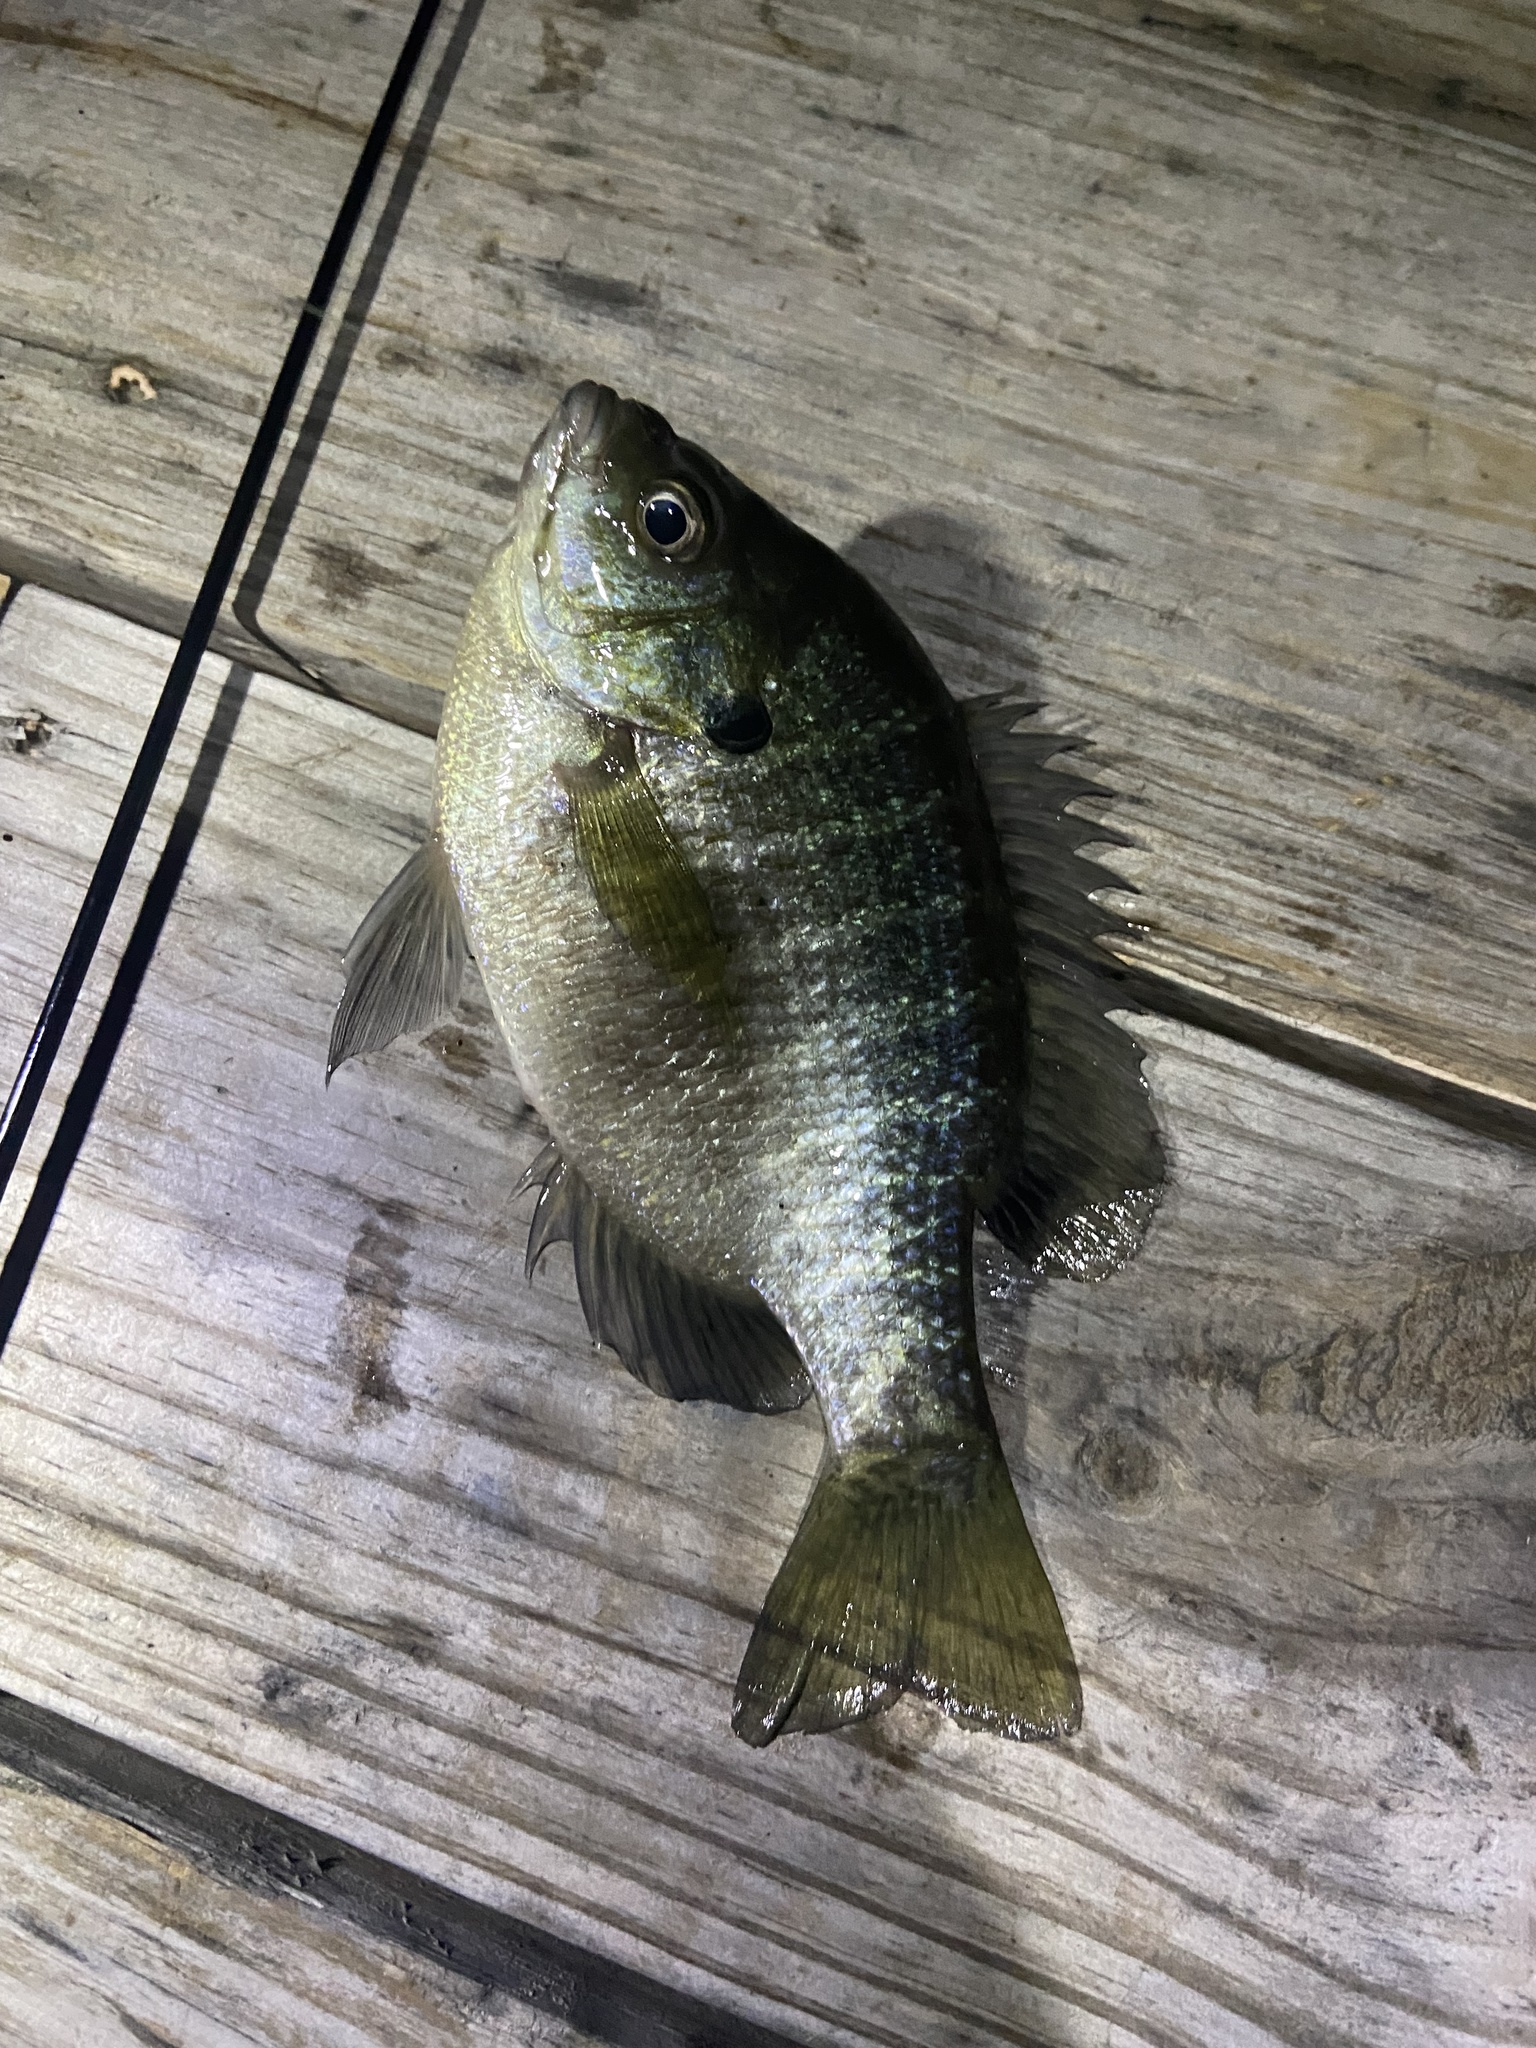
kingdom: Animalia
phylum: Chordata
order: Perciformes
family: Centrarchidae
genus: Lepomis
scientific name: Lepomis macrochirus
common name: Bluegill
